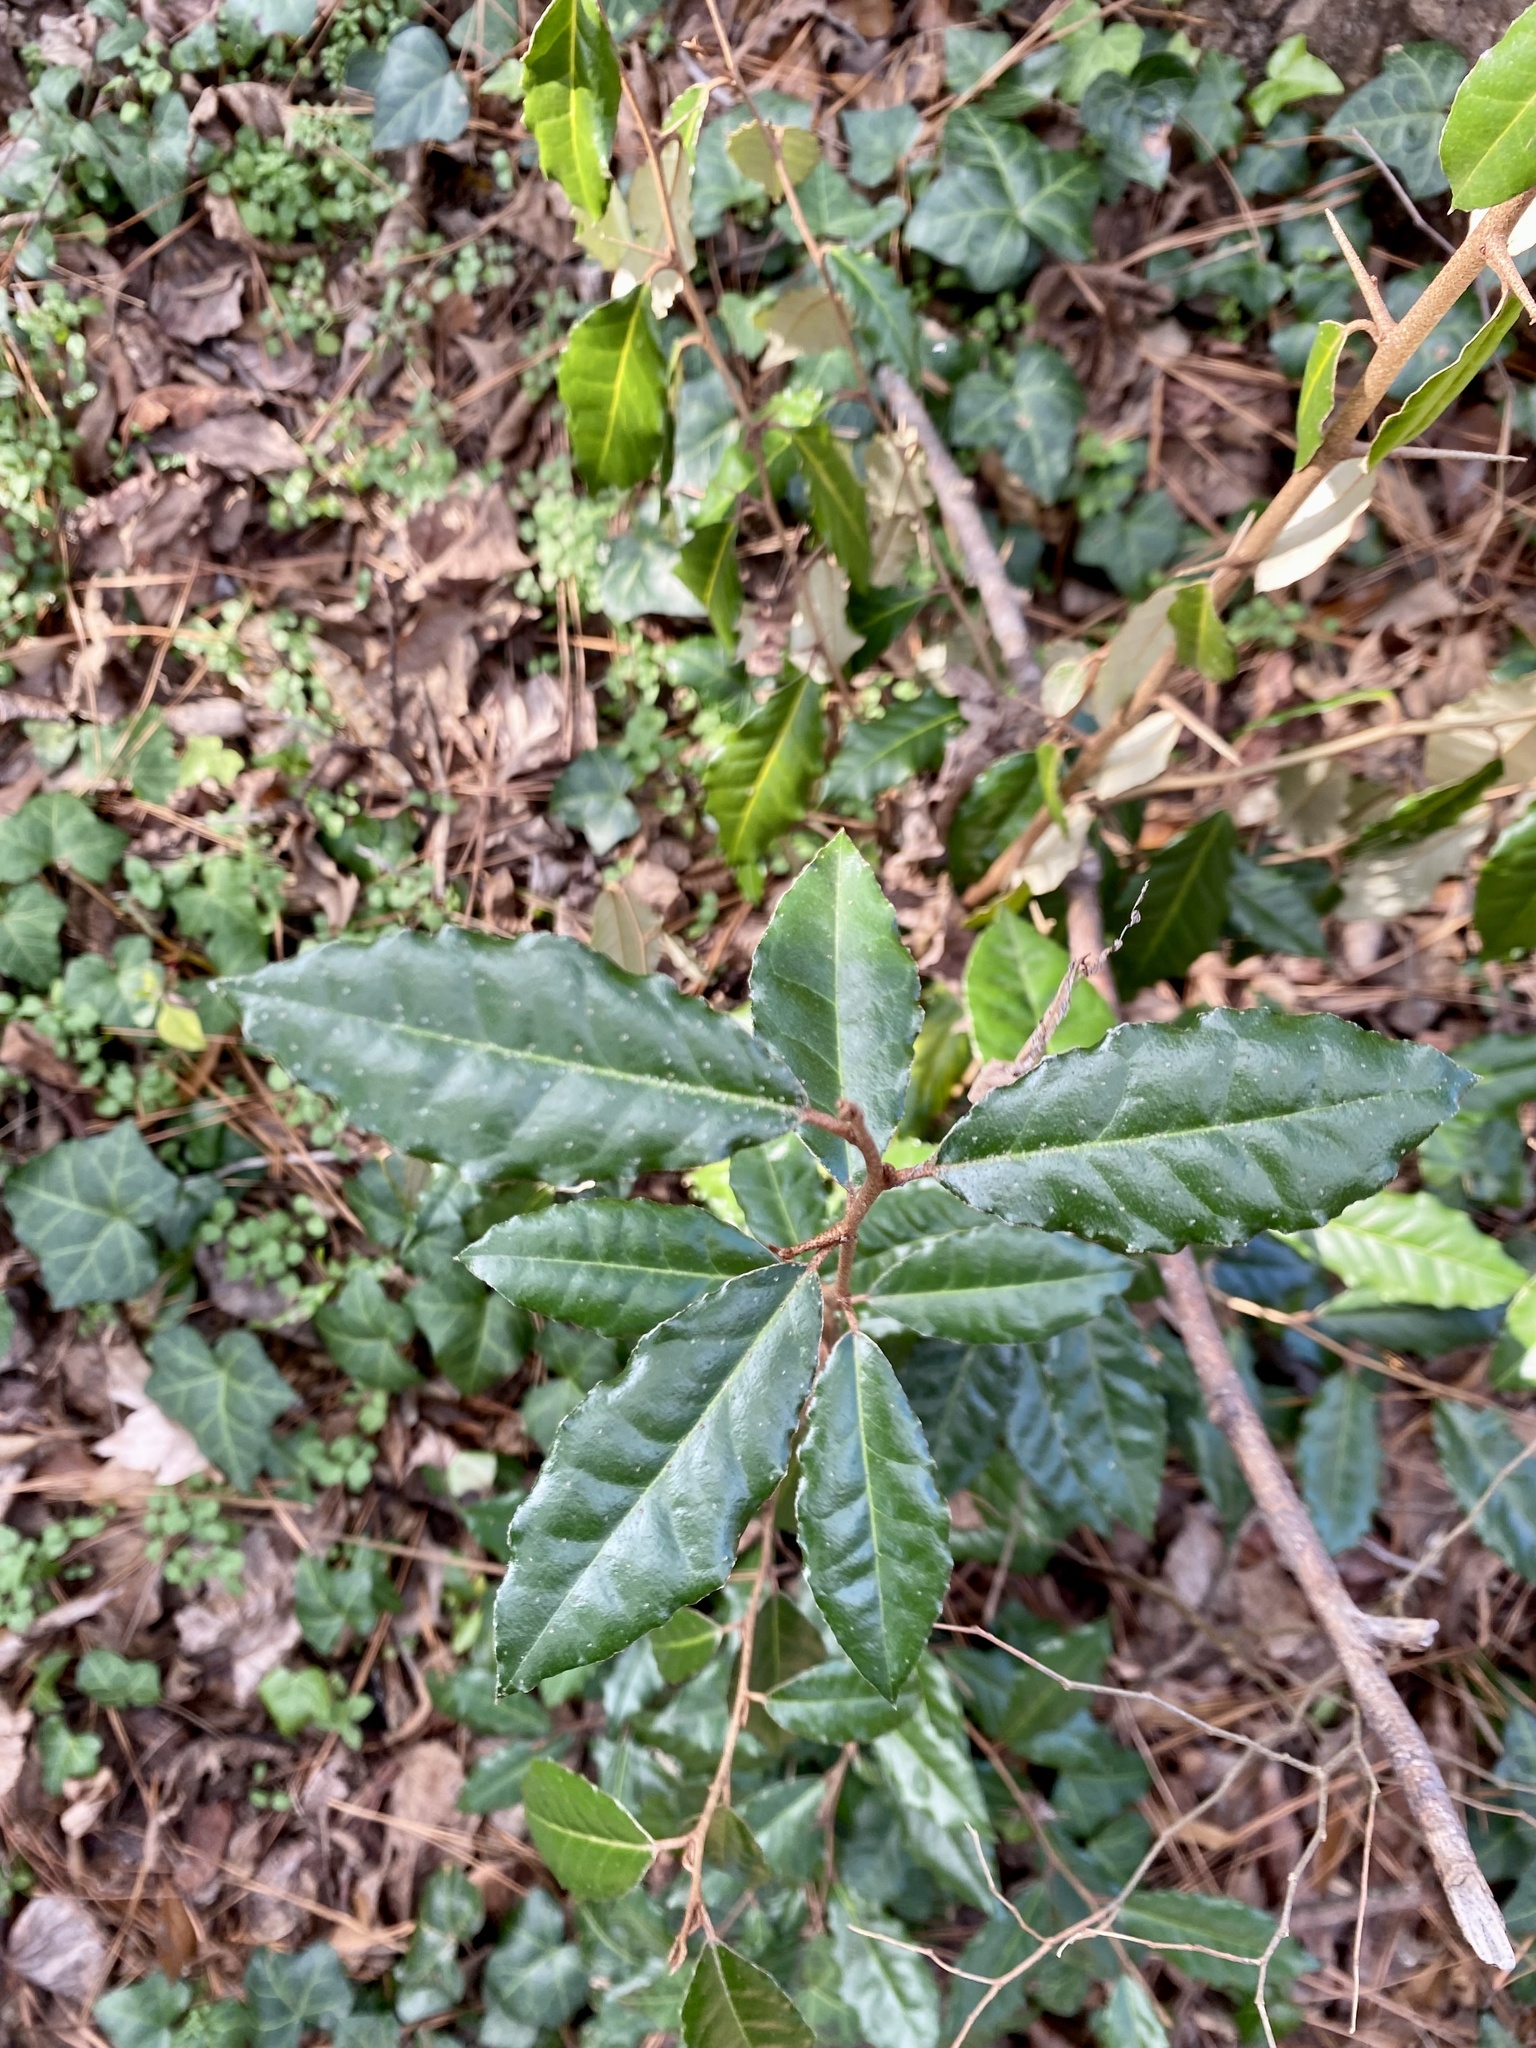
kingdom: Plantae
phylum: Tracheophyta
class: Magnoliopsida
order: Rosales
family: Elaeagnaceae
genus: Elaeagnus
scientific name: Elaeagnus pungens
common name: Spiny oleaster
